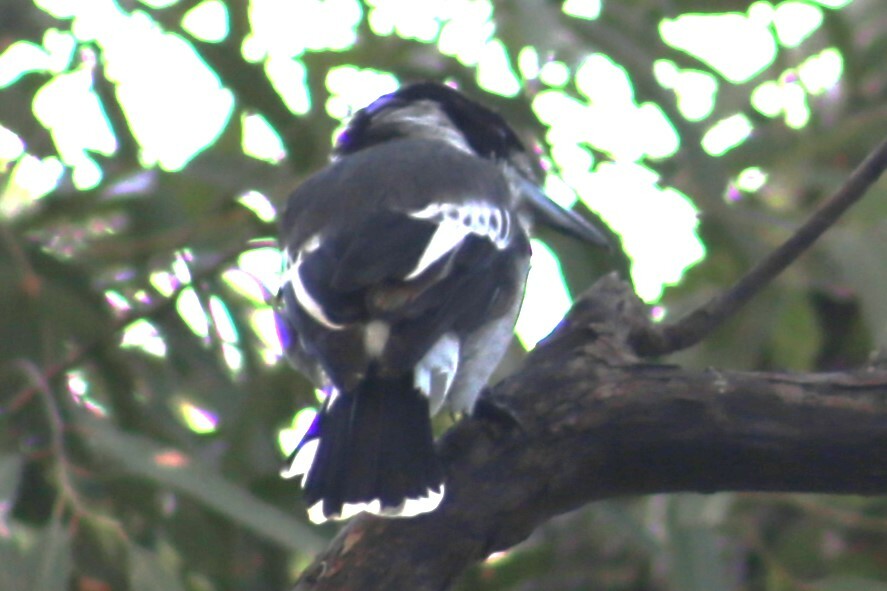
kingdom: Animalia
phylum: Chordata
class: Aves
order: Passeriformes
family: Cracticidae
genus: Cracticus
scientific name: Cracticus torquatus
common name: Grey butcherbird
